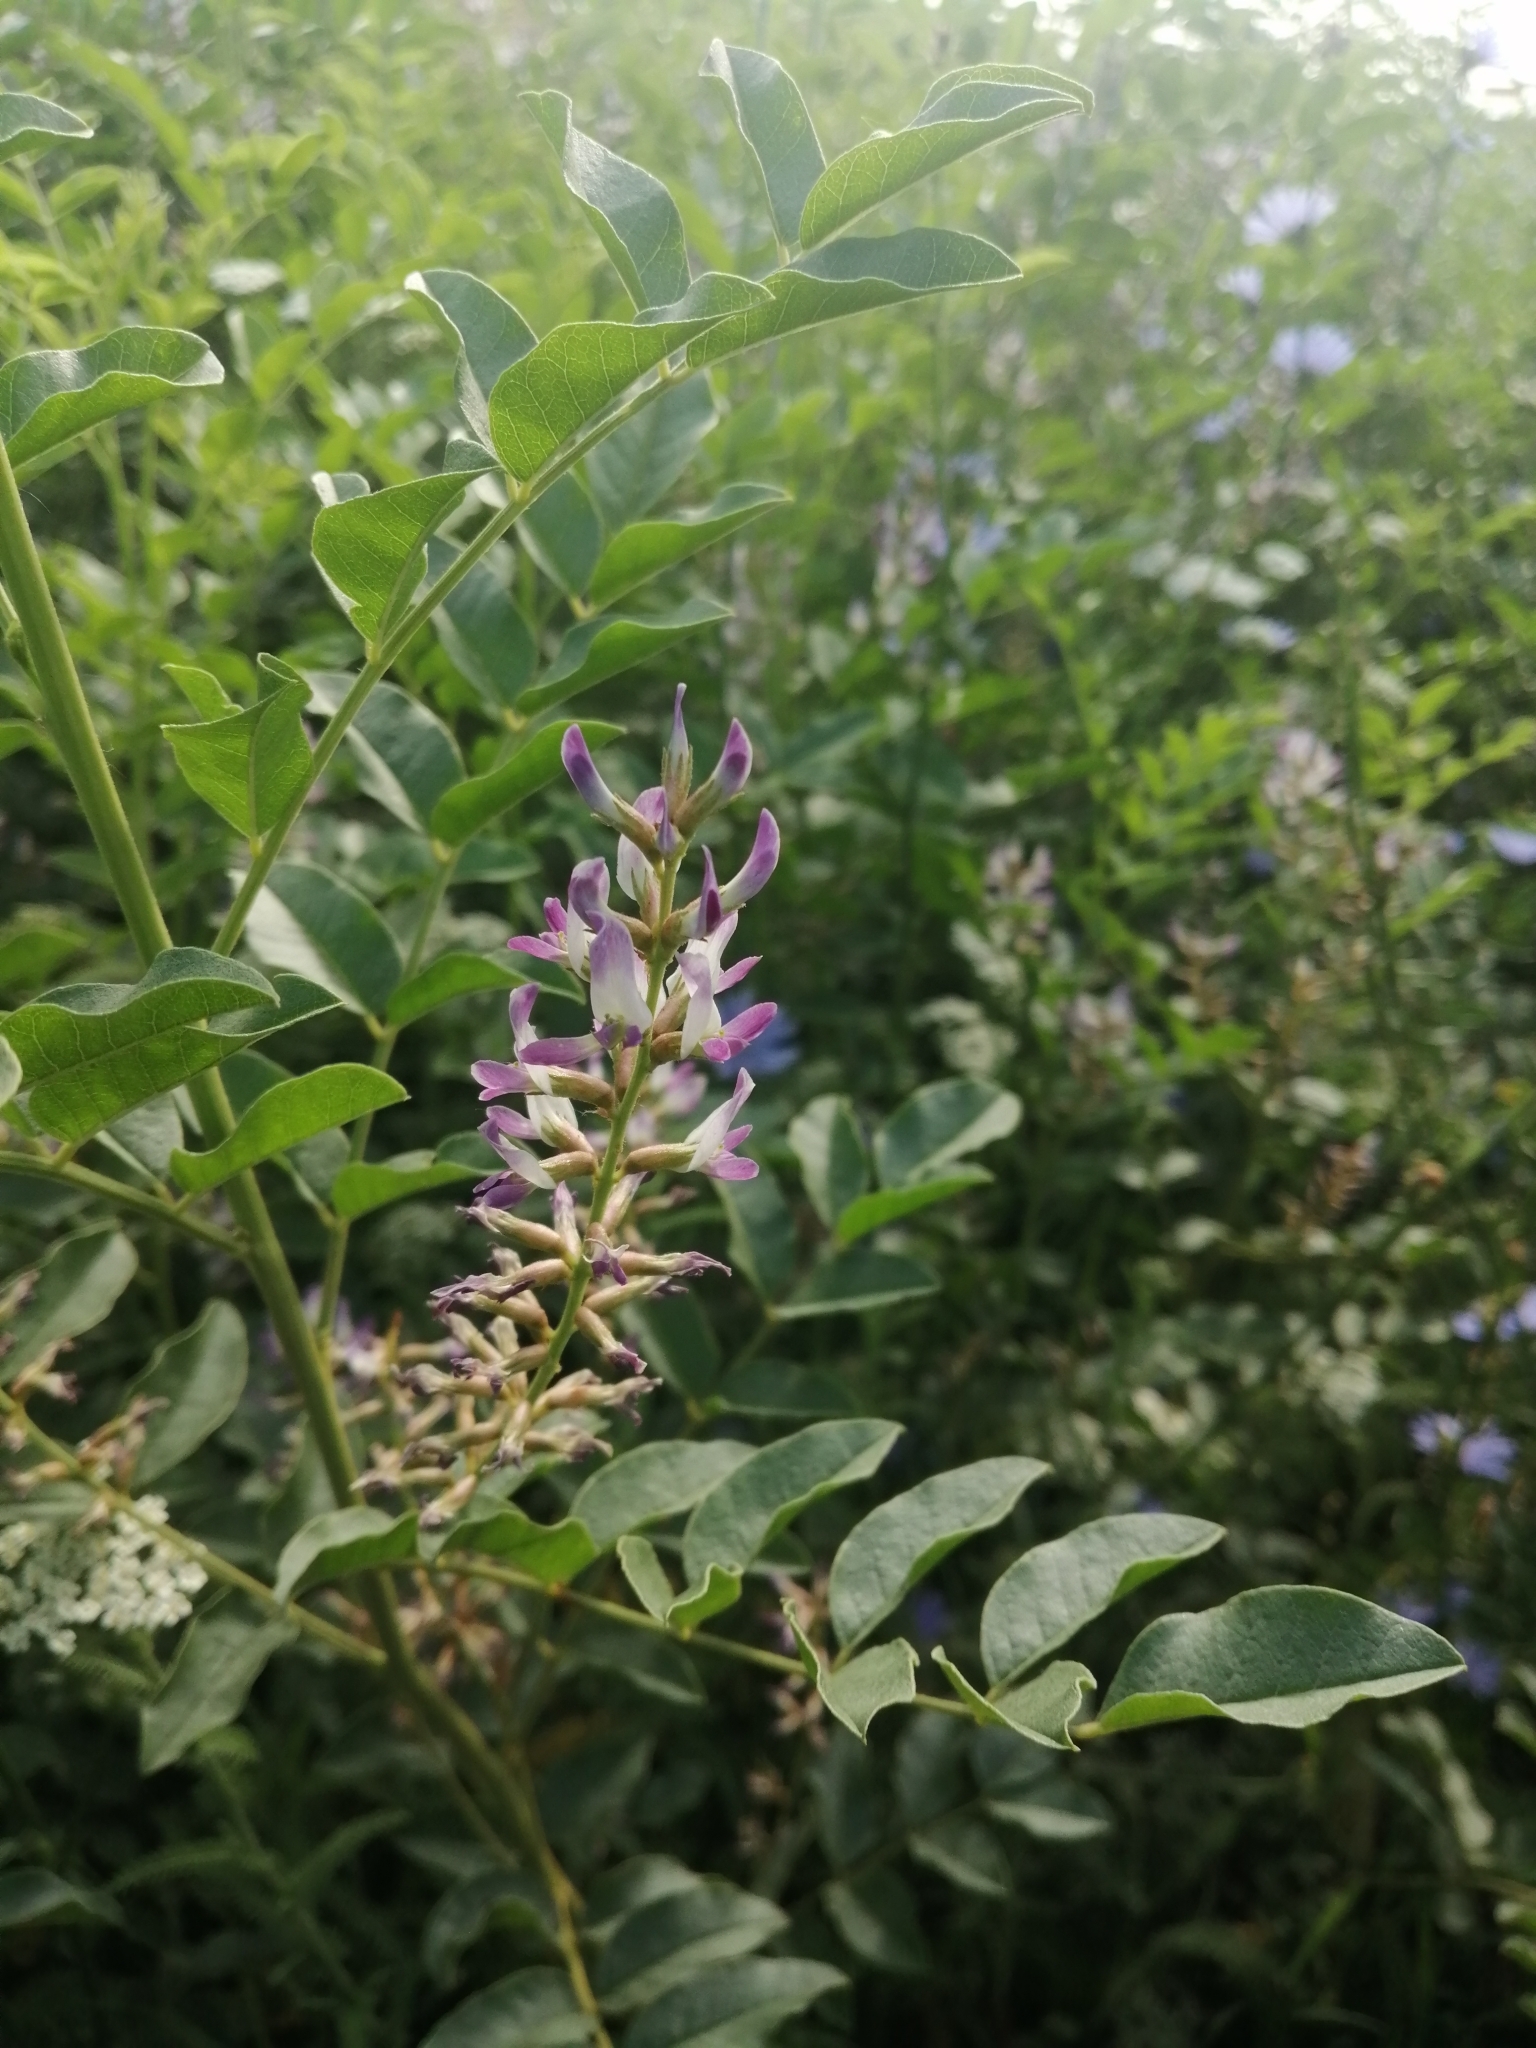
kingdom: Plantae
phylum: Tracheophyta
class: Magnoliopsida
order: Fabales
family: Fabaceae
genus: Glycyrrhiza
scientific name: Glycyrrhiza uralensis
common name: Chinese licorice
